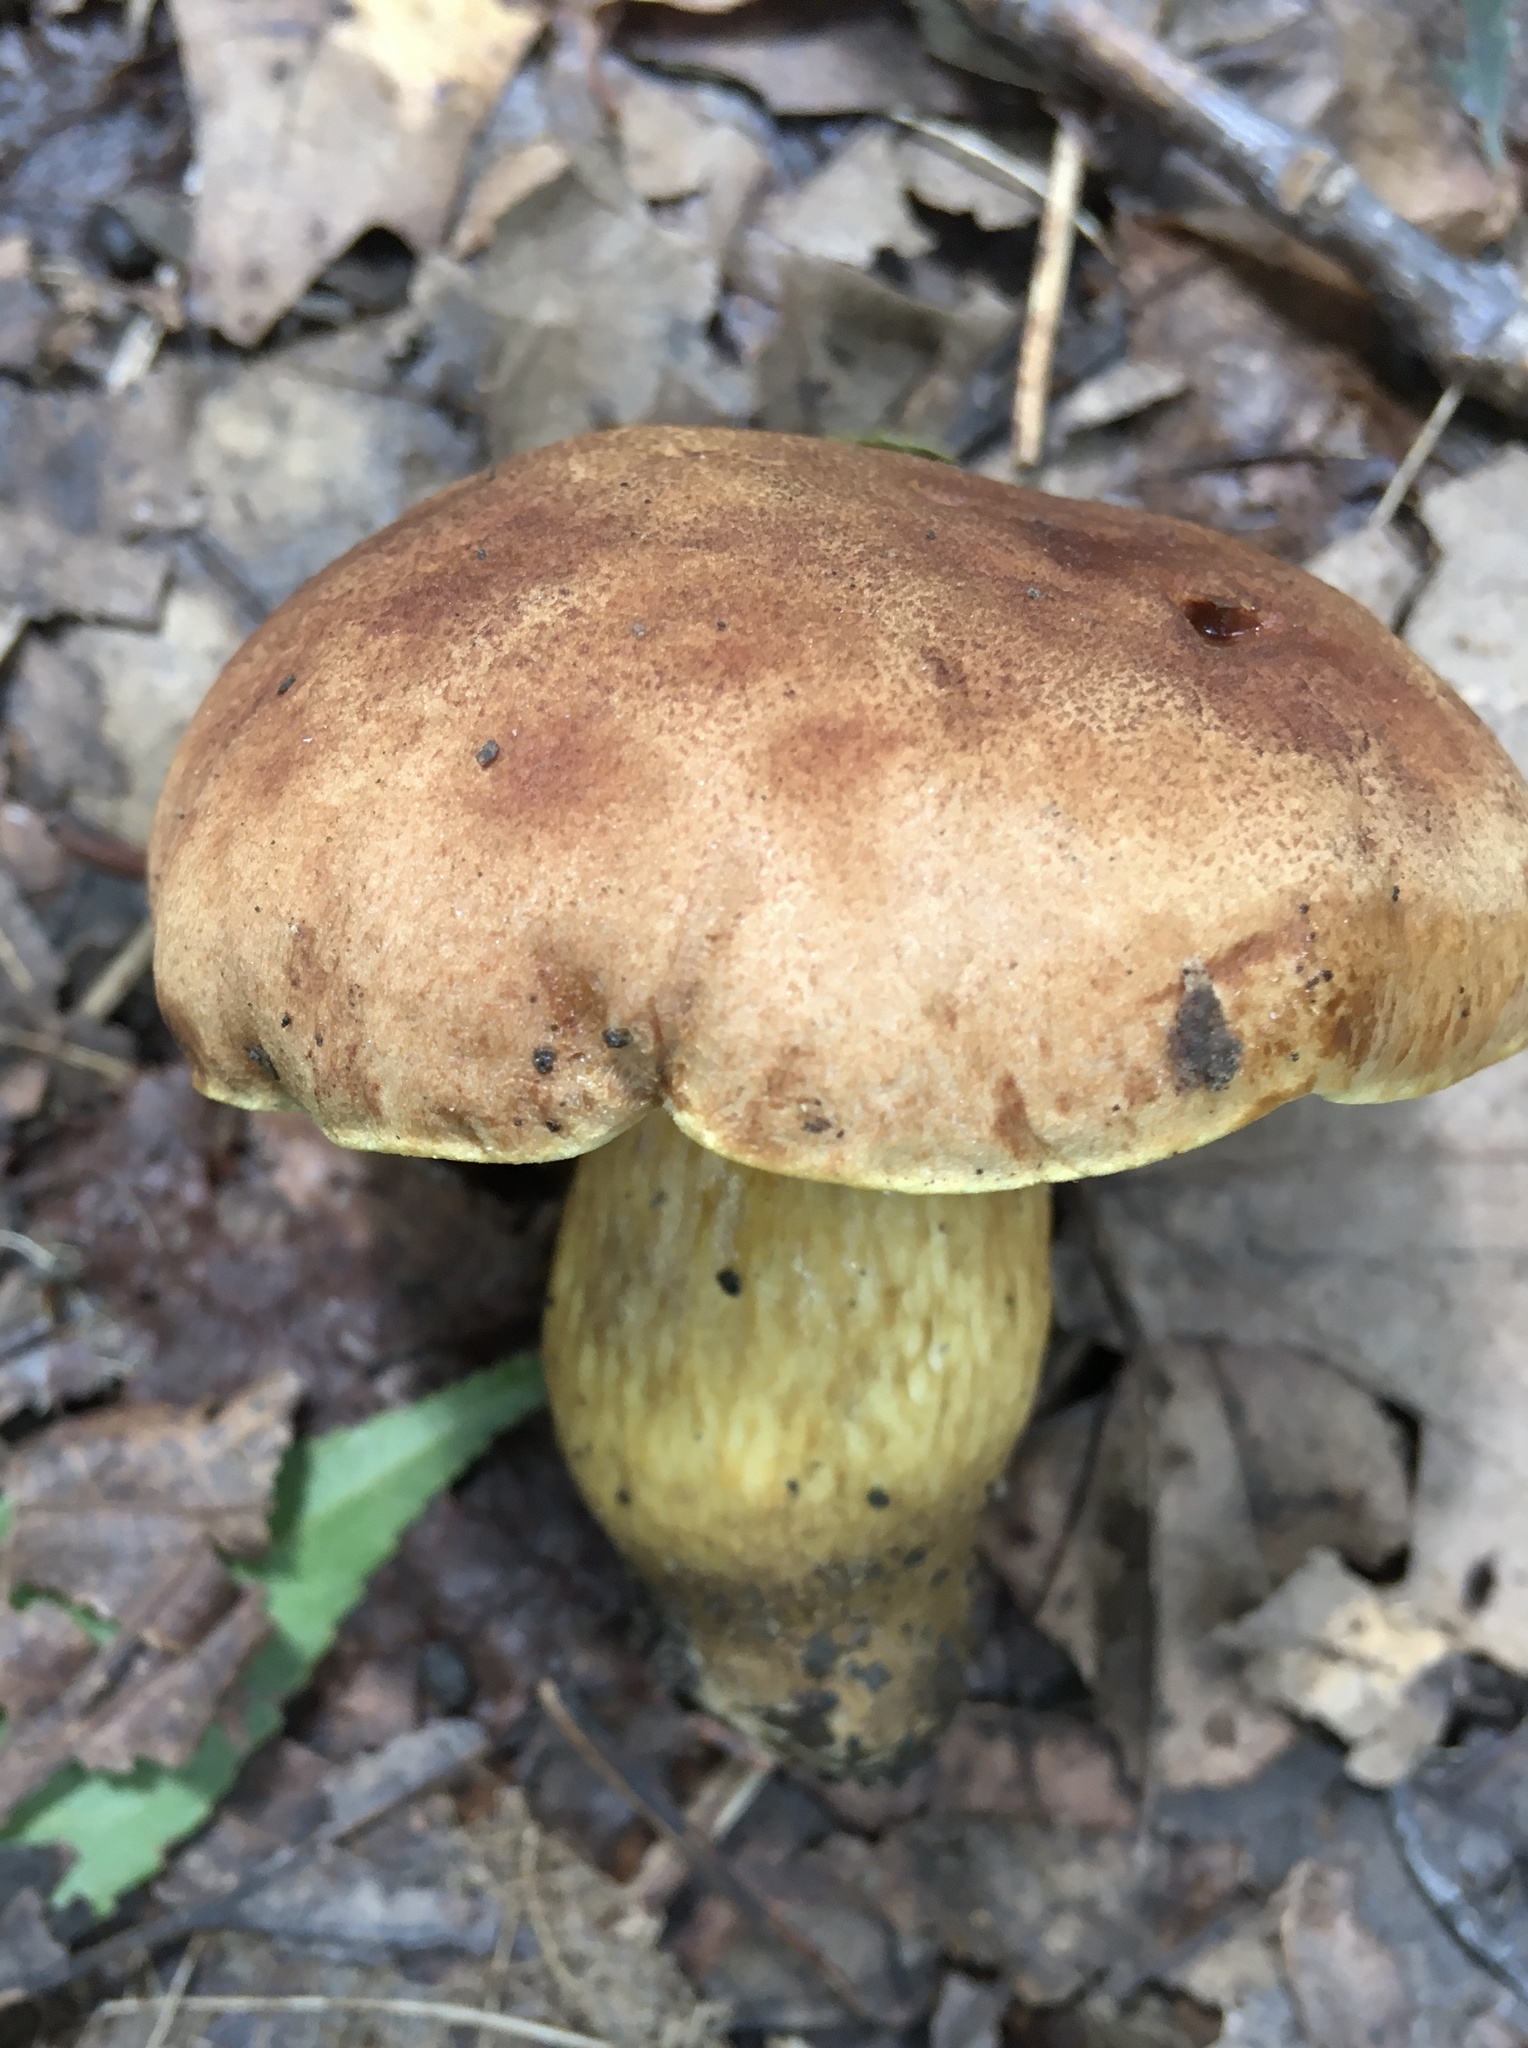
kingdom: Fungi
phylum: Basidiomycota
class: Agaricomycetes
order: Boletales
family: Boletaceae
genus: Aureoboletus
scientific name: Aureoboletus innixus
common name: Clustered brown bolete
